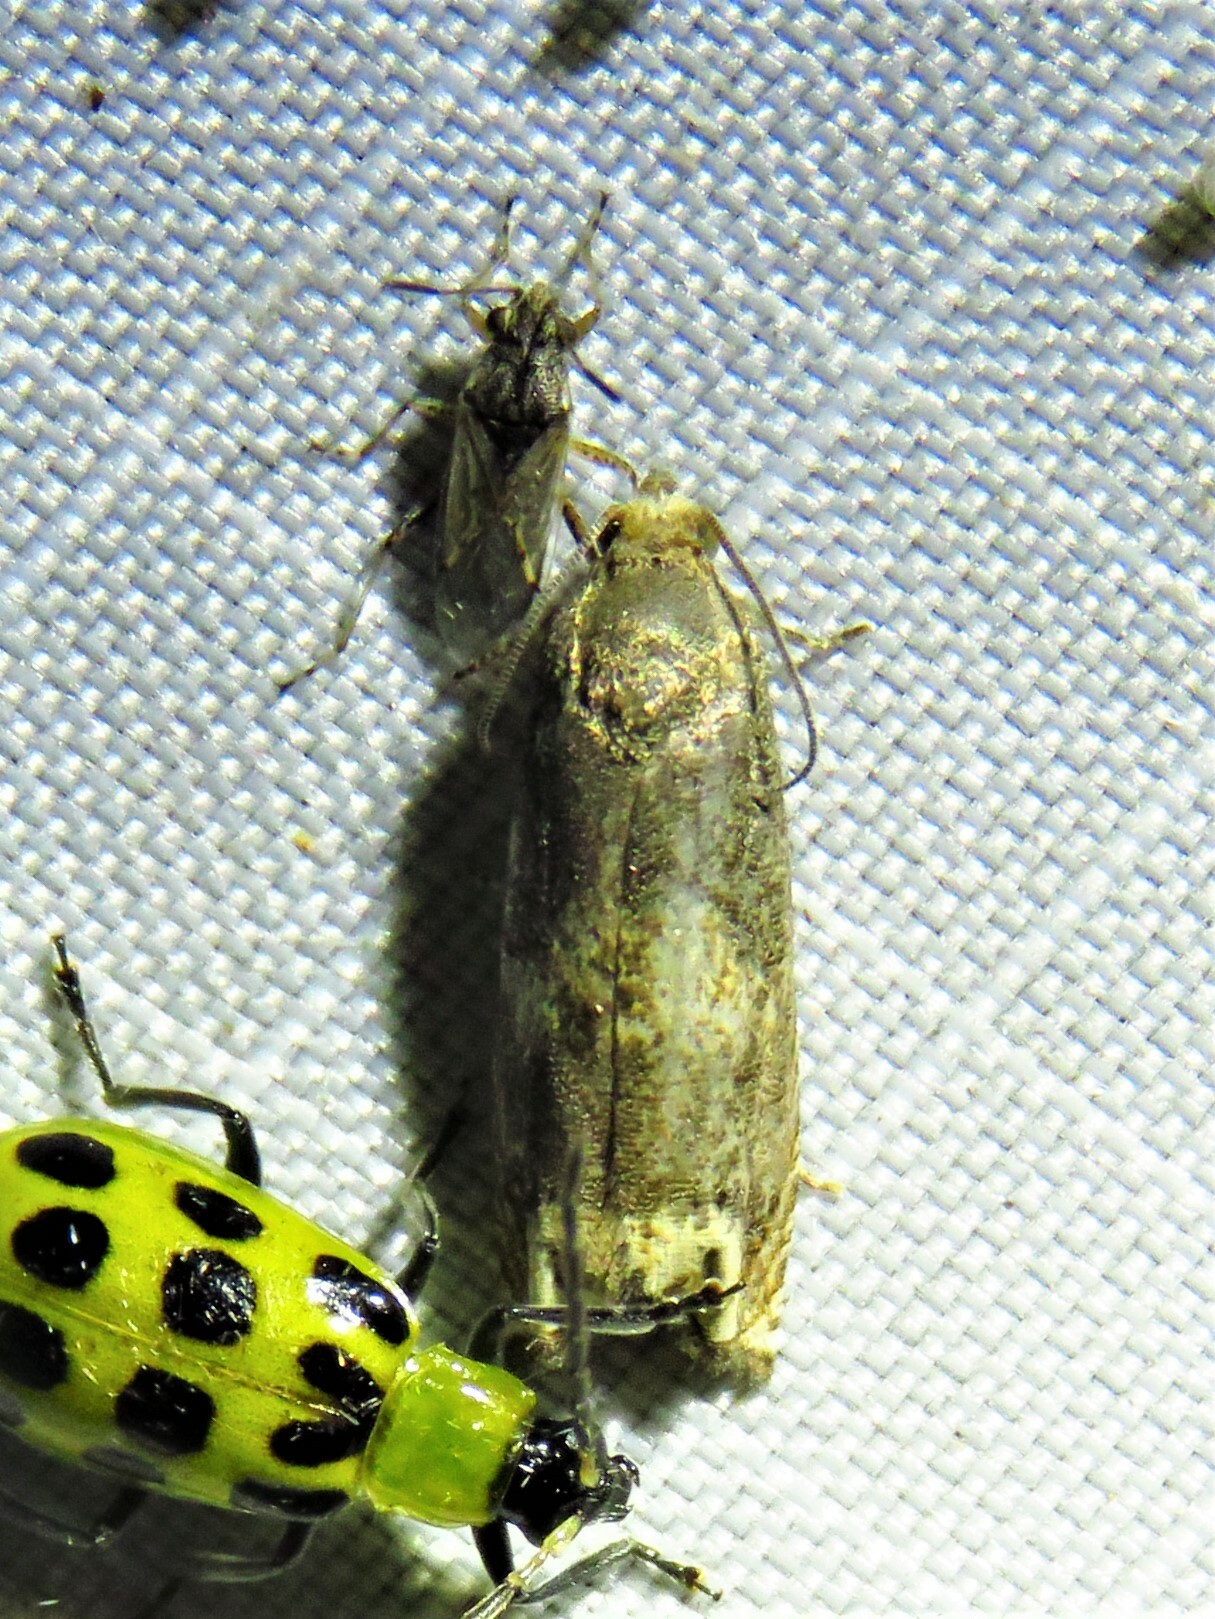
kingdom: Animalia
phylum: Arthropoda
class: Insecta
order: Lepidoptera
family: Tortricidae
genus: Epiblema
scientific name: Epiblema strenuana
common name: Ragweed borer moth
